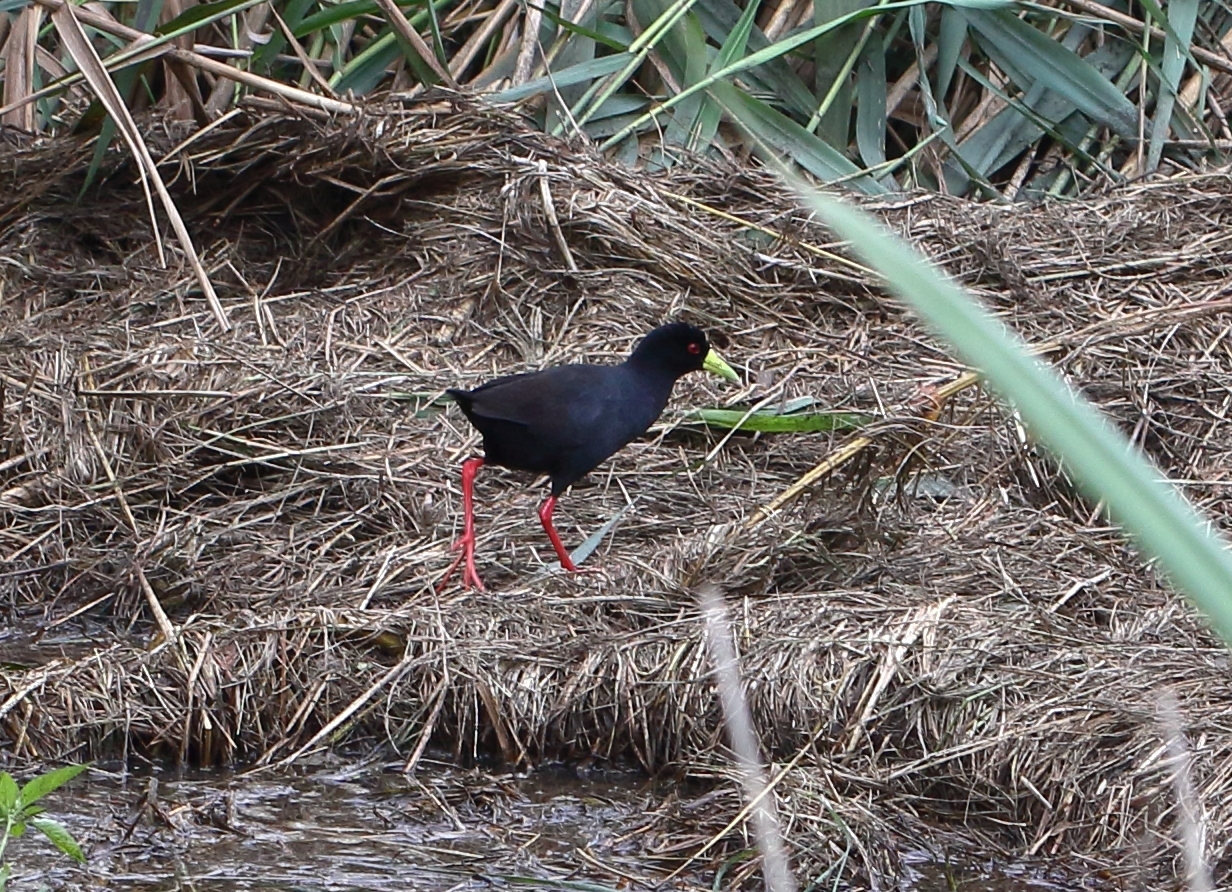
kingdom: Animalia
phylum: Chordata
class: Aves
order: Gruiformes
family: Rallidae
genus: Amaurornis
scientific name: Amaurornis flavirostra
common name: Black crake
